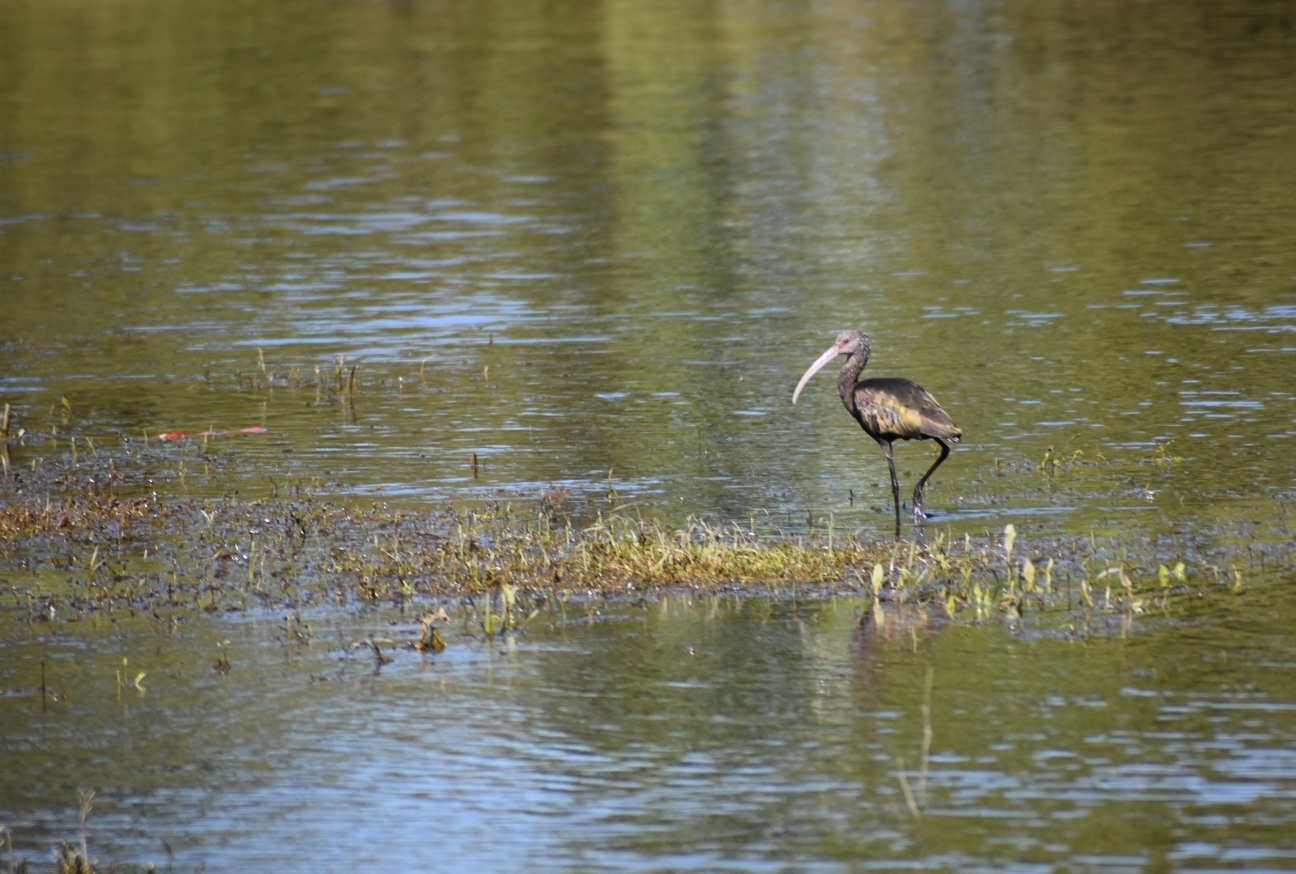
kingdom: Animalia
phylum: Chordata
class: Aves
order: Pelecaniformes
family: Threskiornithidae
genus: Plegadis
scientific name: Plegadis chihi
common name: White-faced ibis
